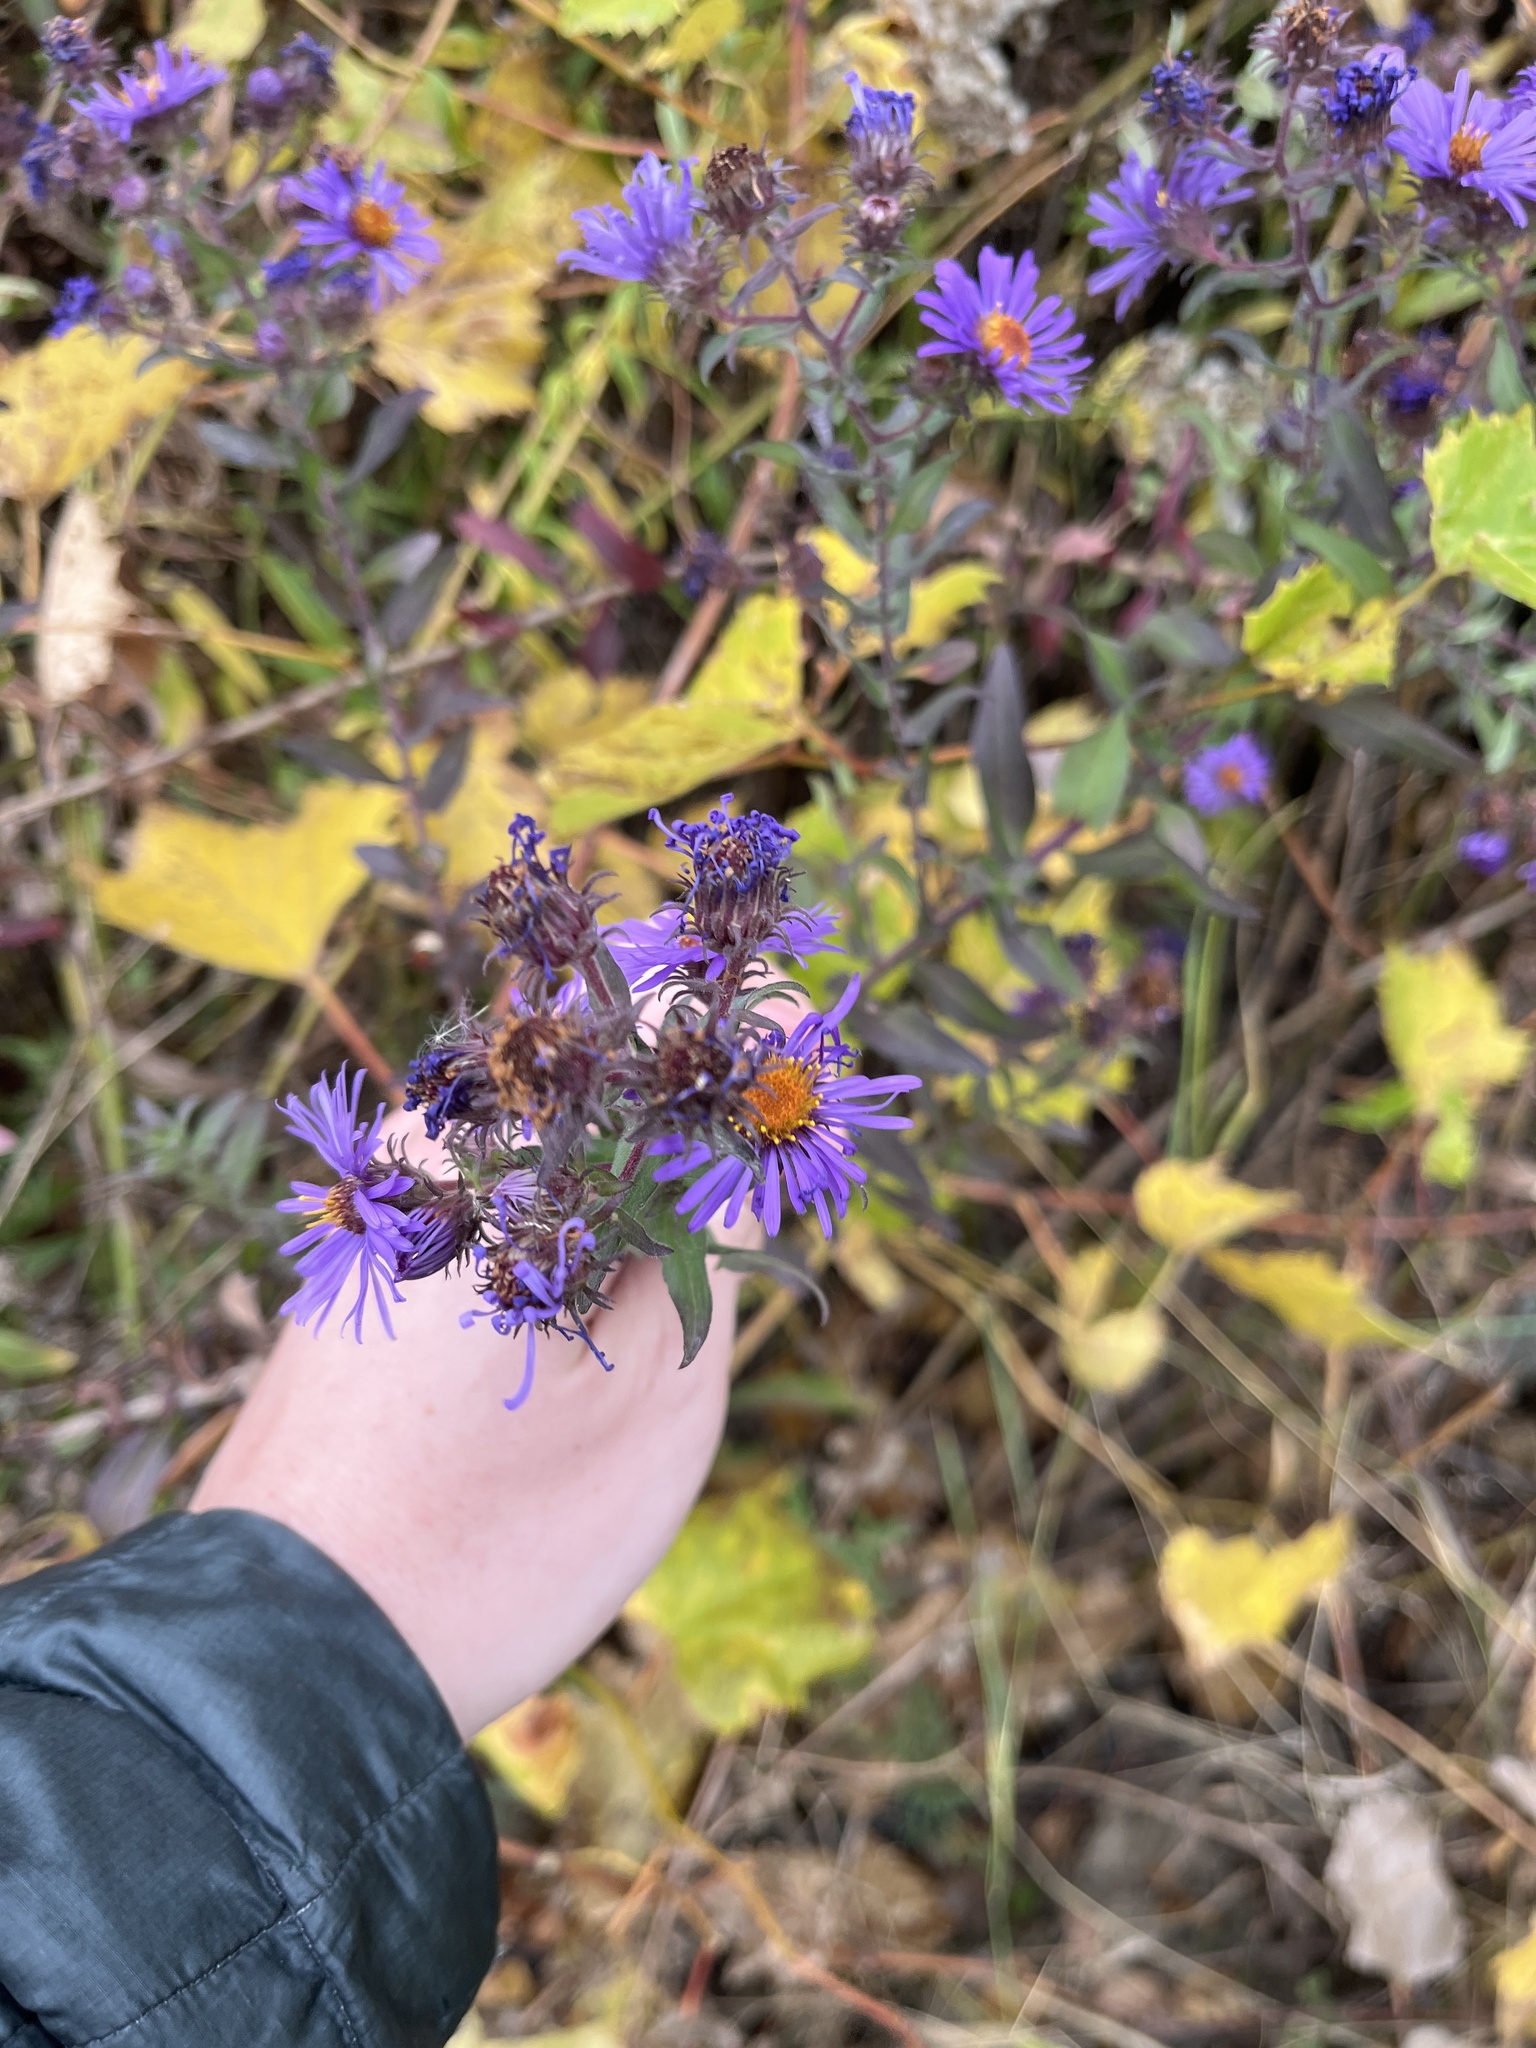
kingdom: Plantae
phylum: Tracheophyta
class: Magnoliopsida
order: Asterales
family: Asteraceae
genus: Symphyotrichum
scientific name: Symphyotrichum novae-angliae
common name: Michaelmas daisy
